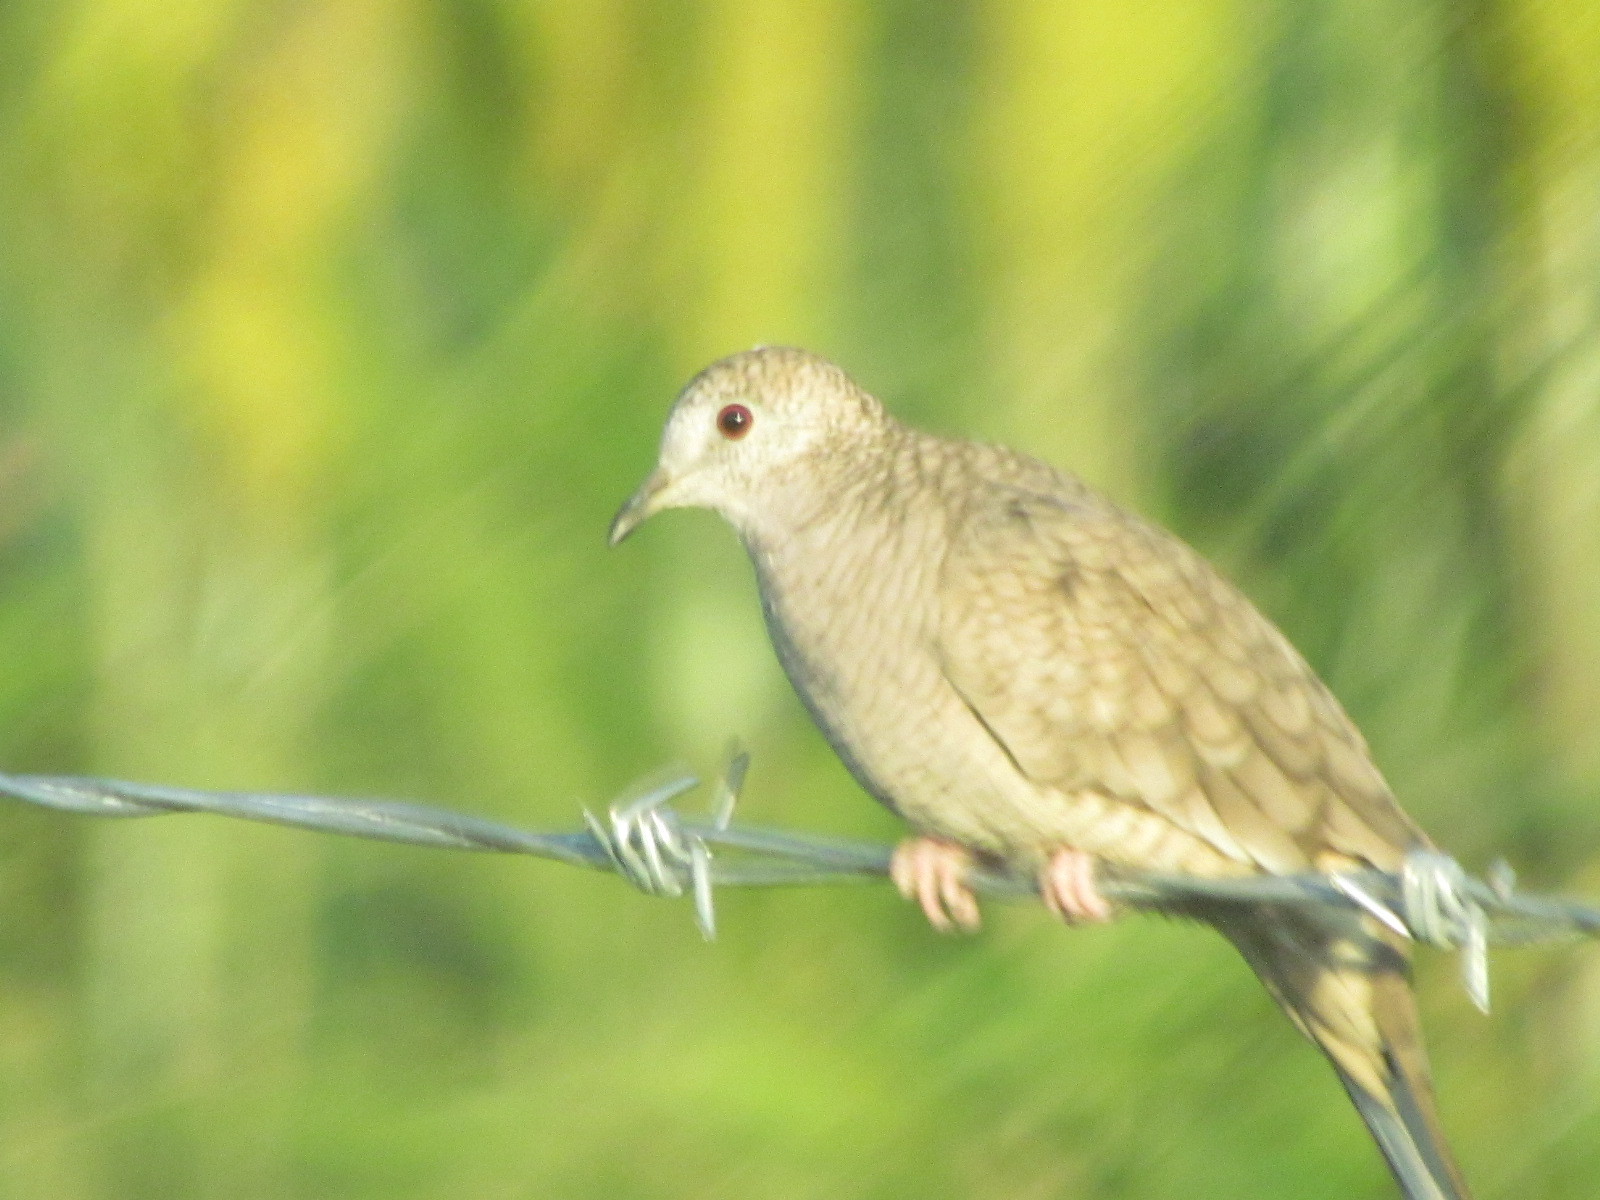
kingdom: Animalia
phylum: Chordata
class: Aves
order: Columbiformes
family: Columbidae
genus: Columbina
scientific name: Columbina inca
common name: Inca dove
